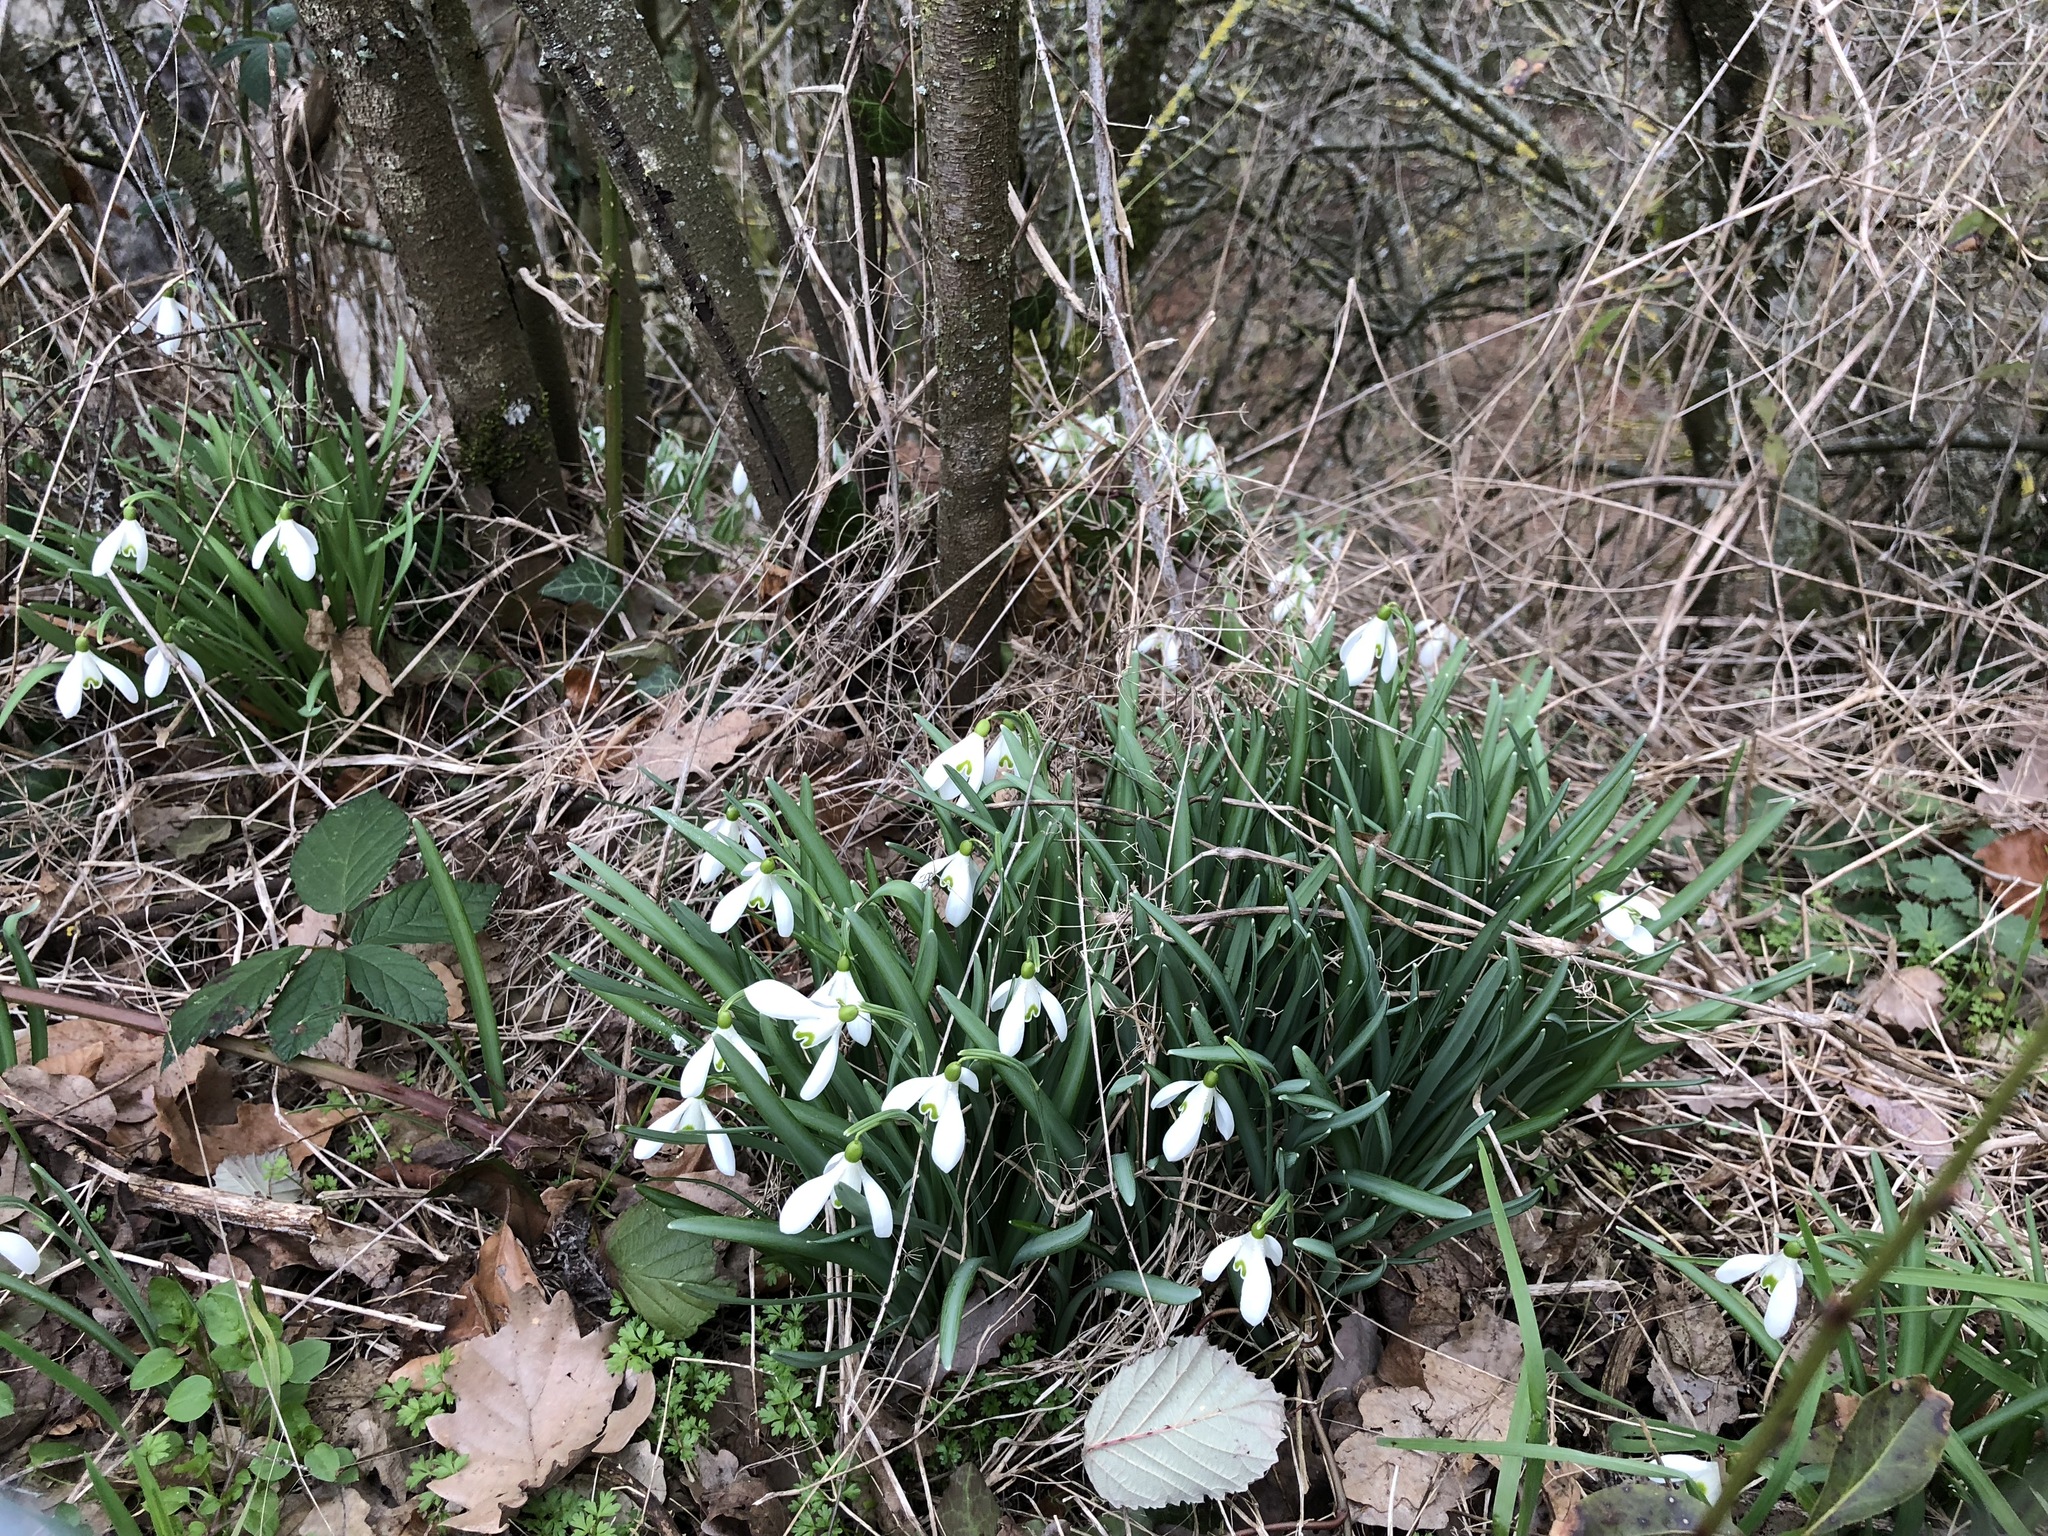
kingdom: Plantae
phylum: Tracheophyta
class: Liliopsida
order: Asparagales
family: Amaryllidaceae
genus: Galanthus
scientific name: Galanthus nivalis
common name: Snowdrop
